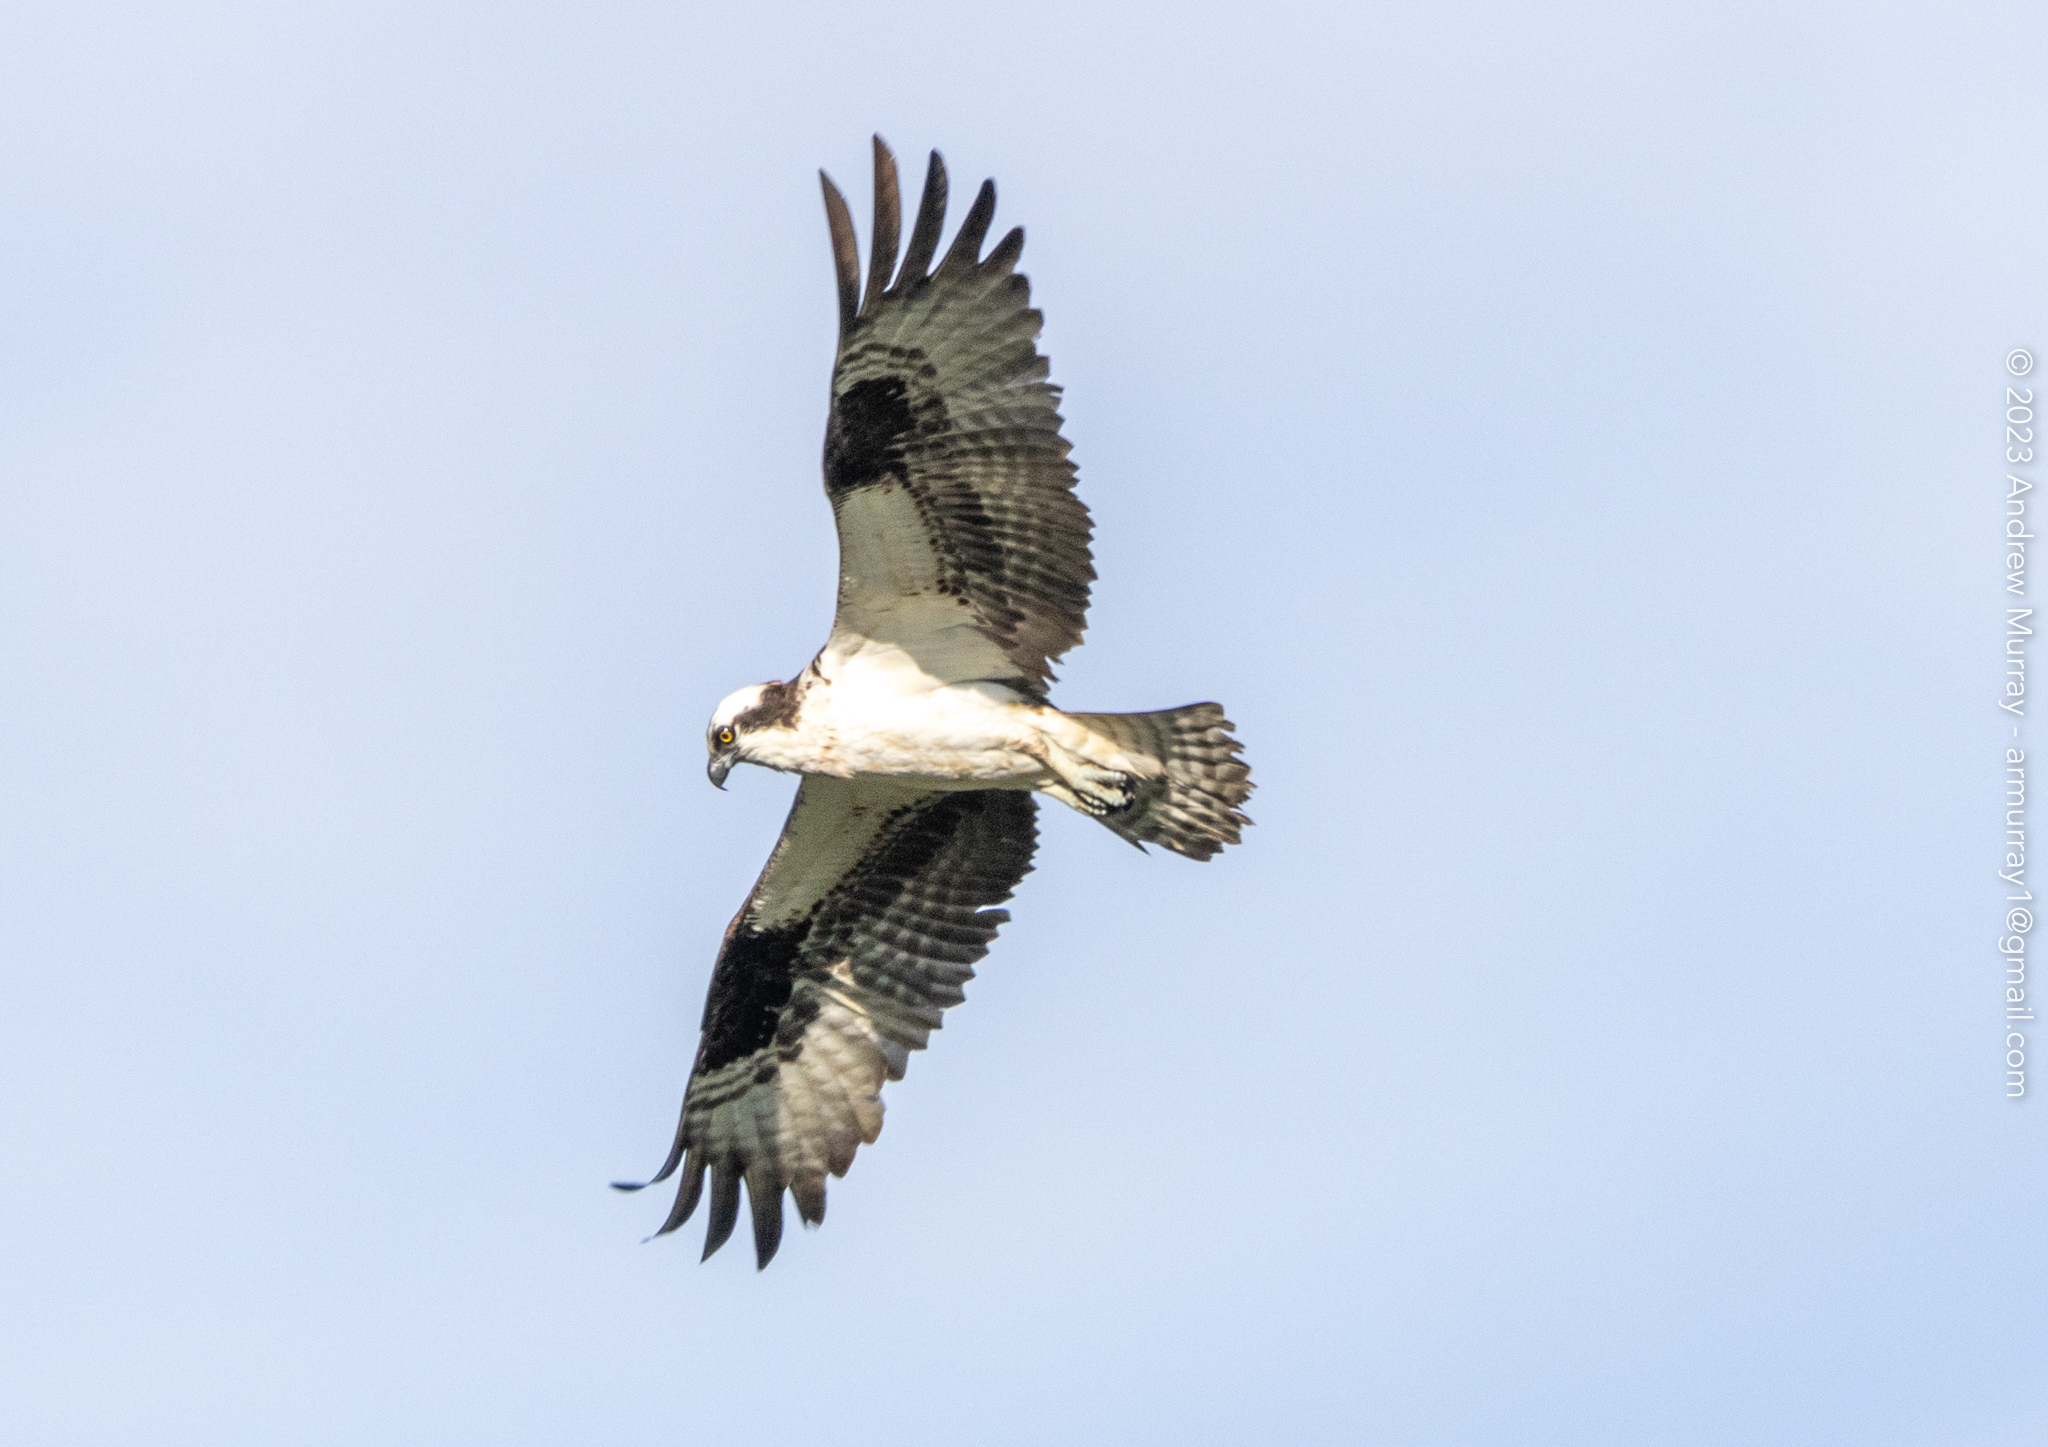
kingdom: Animalia
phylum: Chordata
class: Aves
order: Accipitriformes
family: Pandionidae
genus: Pandion
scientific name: Pandion haliaetus
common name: Osprey
